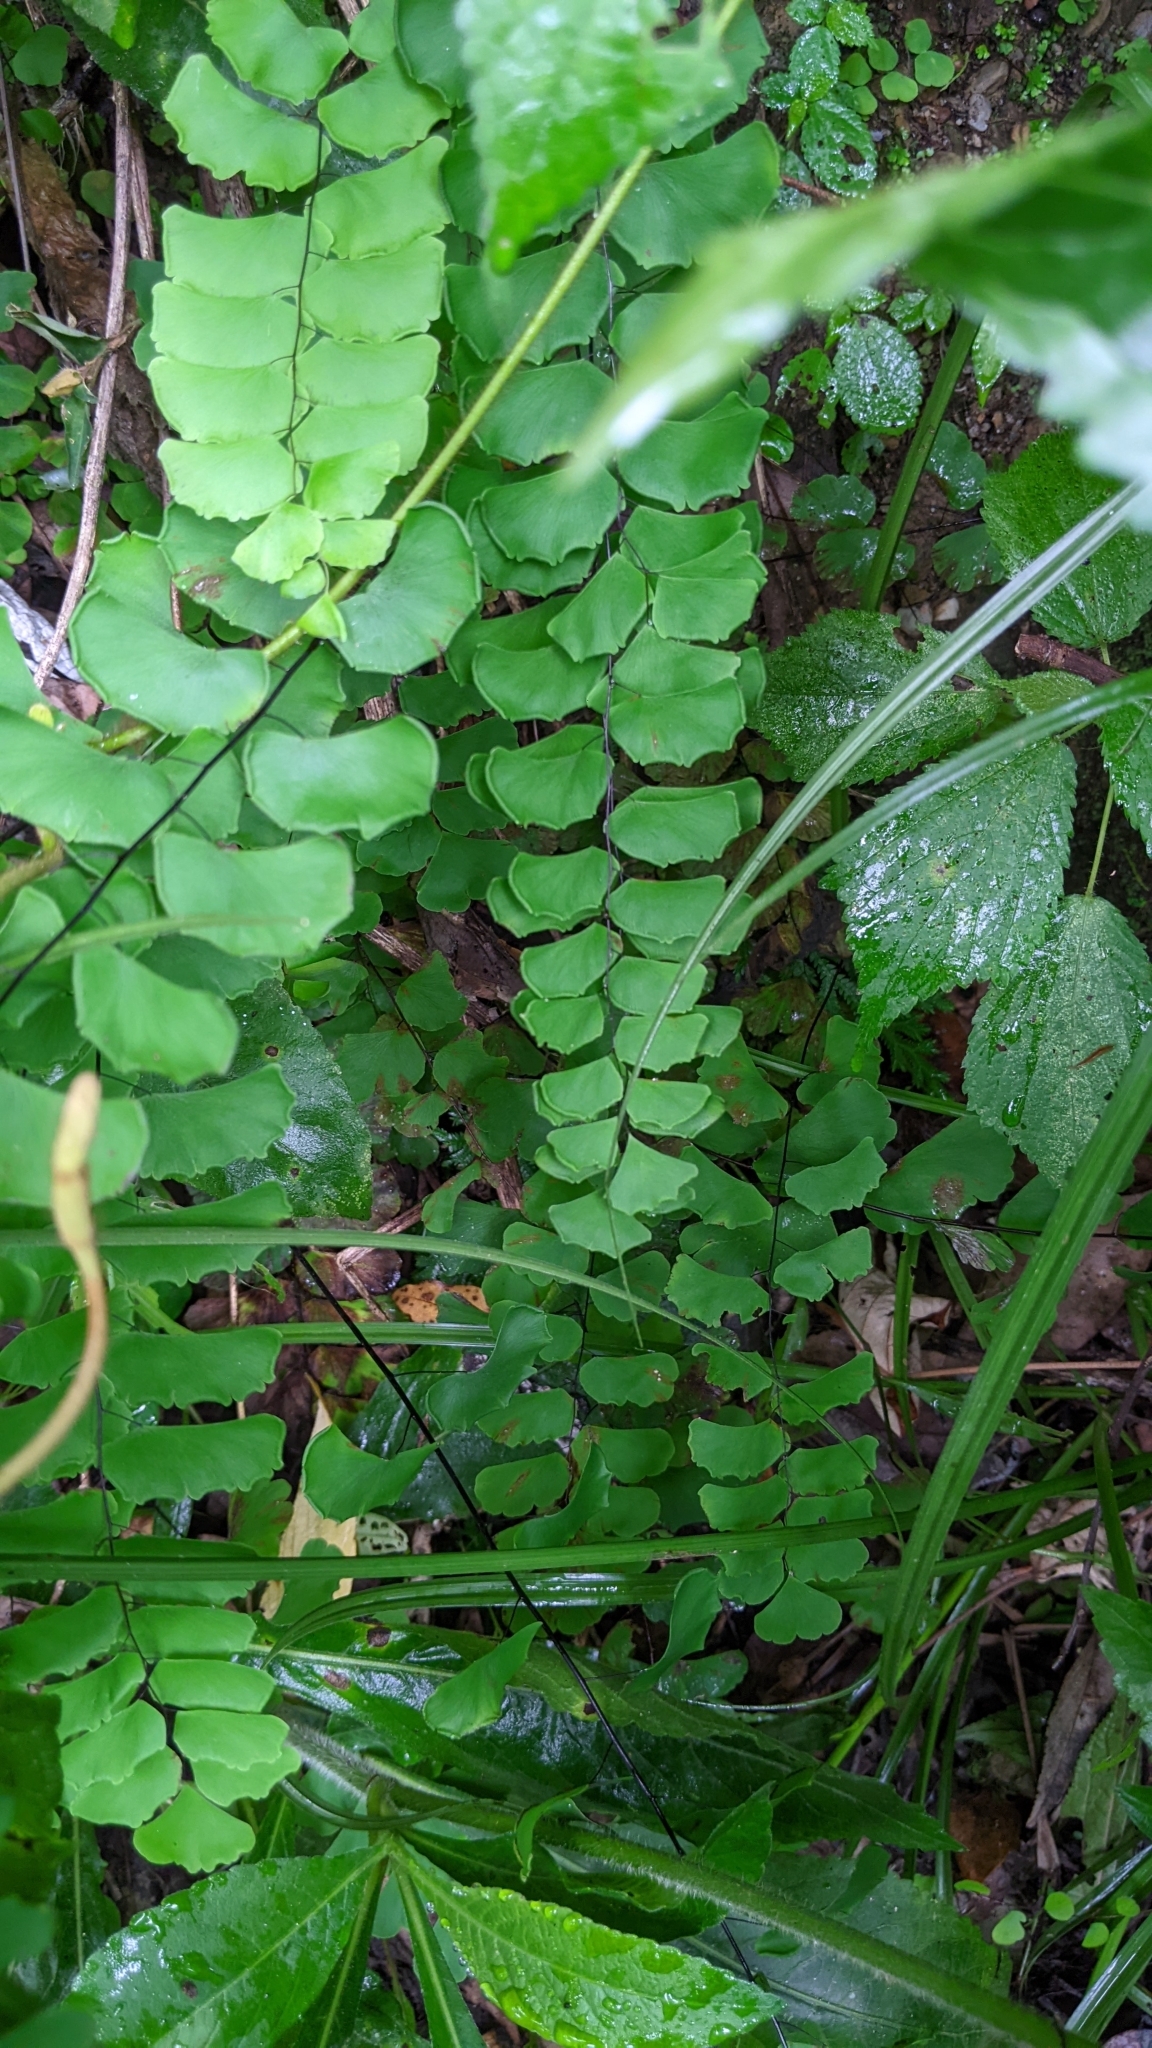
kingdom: Plantae
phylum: Tracheophyta
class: Polypodiopsida
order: Polypodiales
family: Pteridaceae
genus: Adiantum
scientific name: Adiantum philippense
